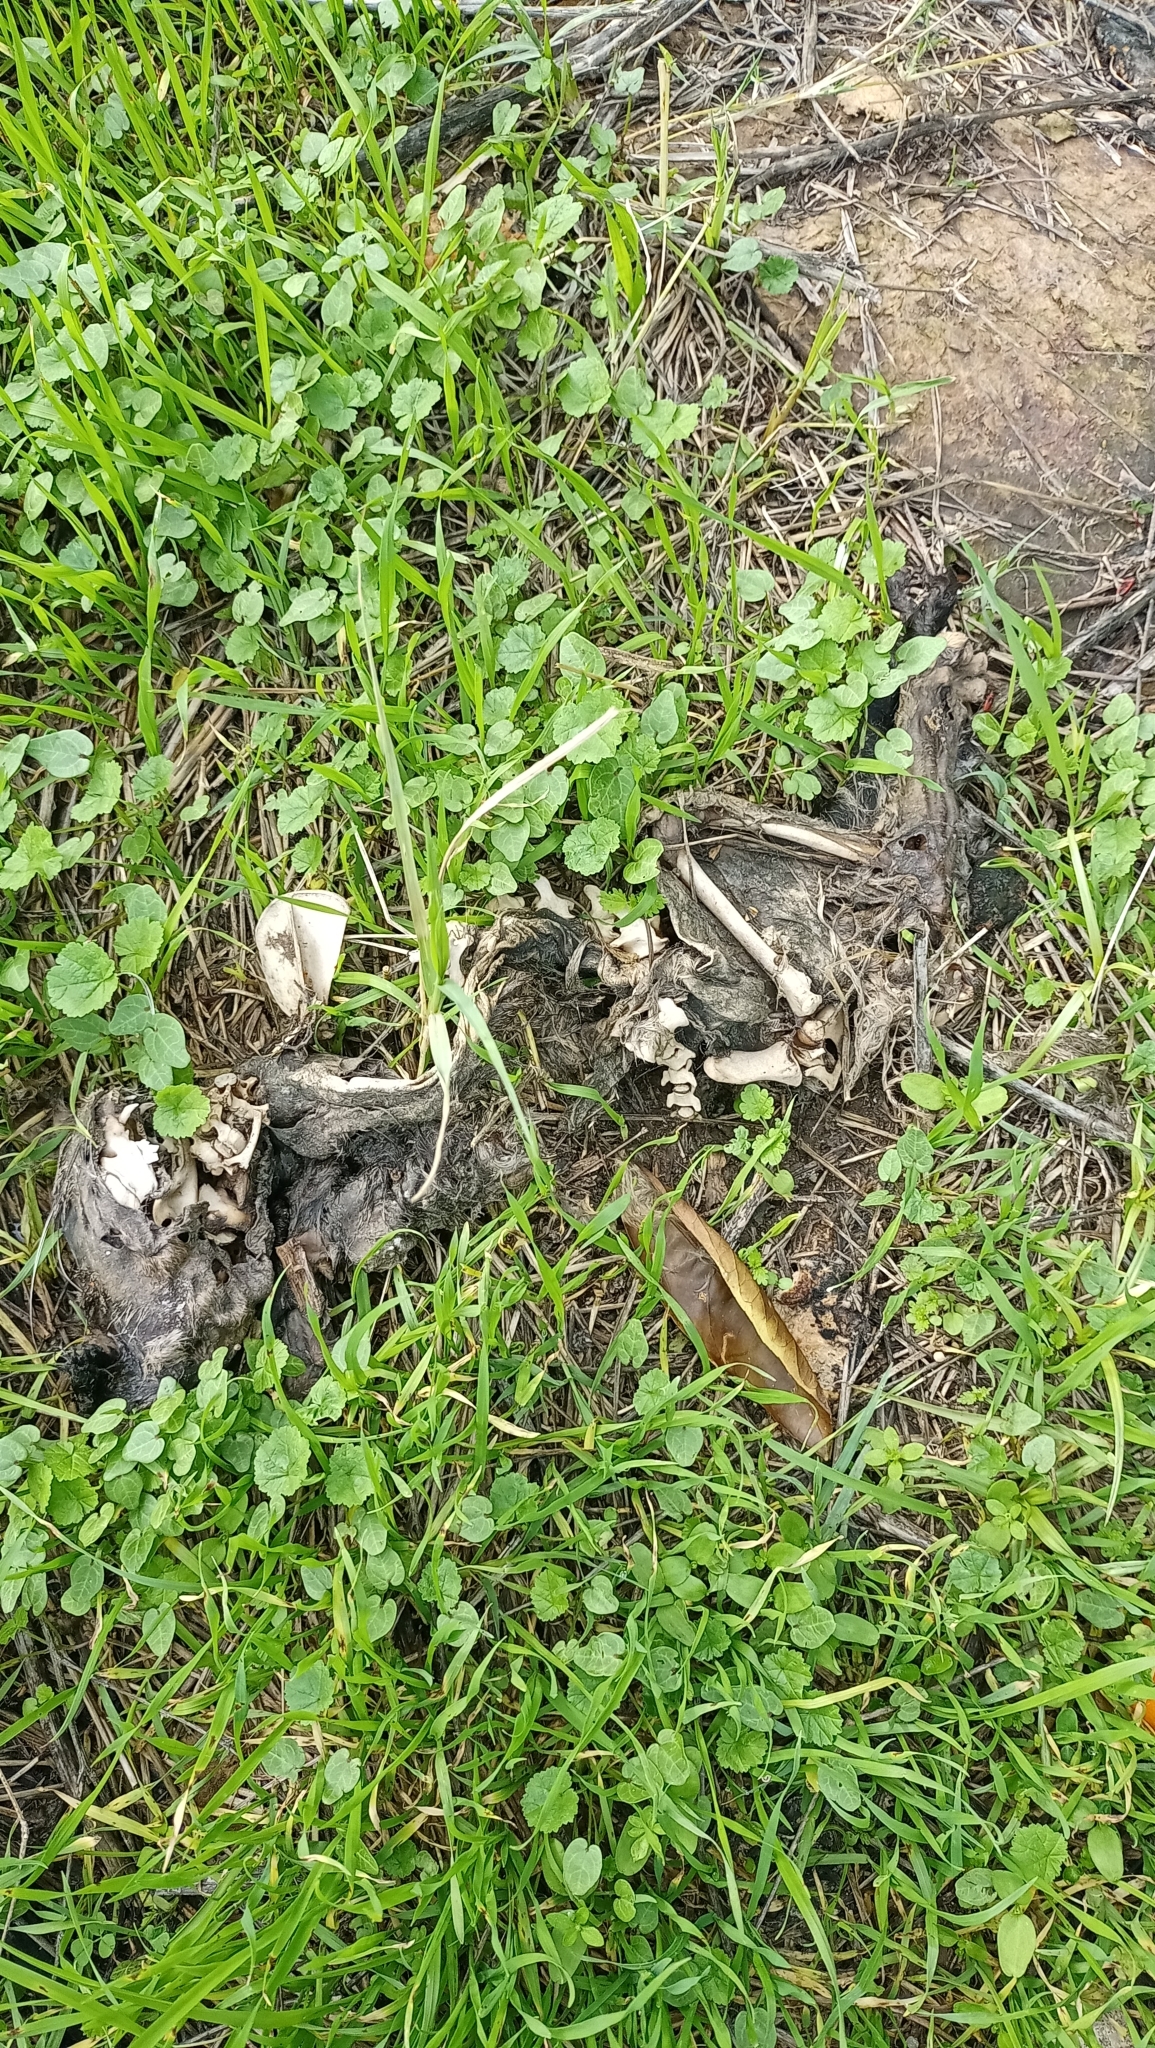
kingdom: Animalia
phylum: Chordata
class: Mammalia
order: Carnivora
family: Felidae
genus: Felis
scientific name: Felis catus
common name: Domestic cat
